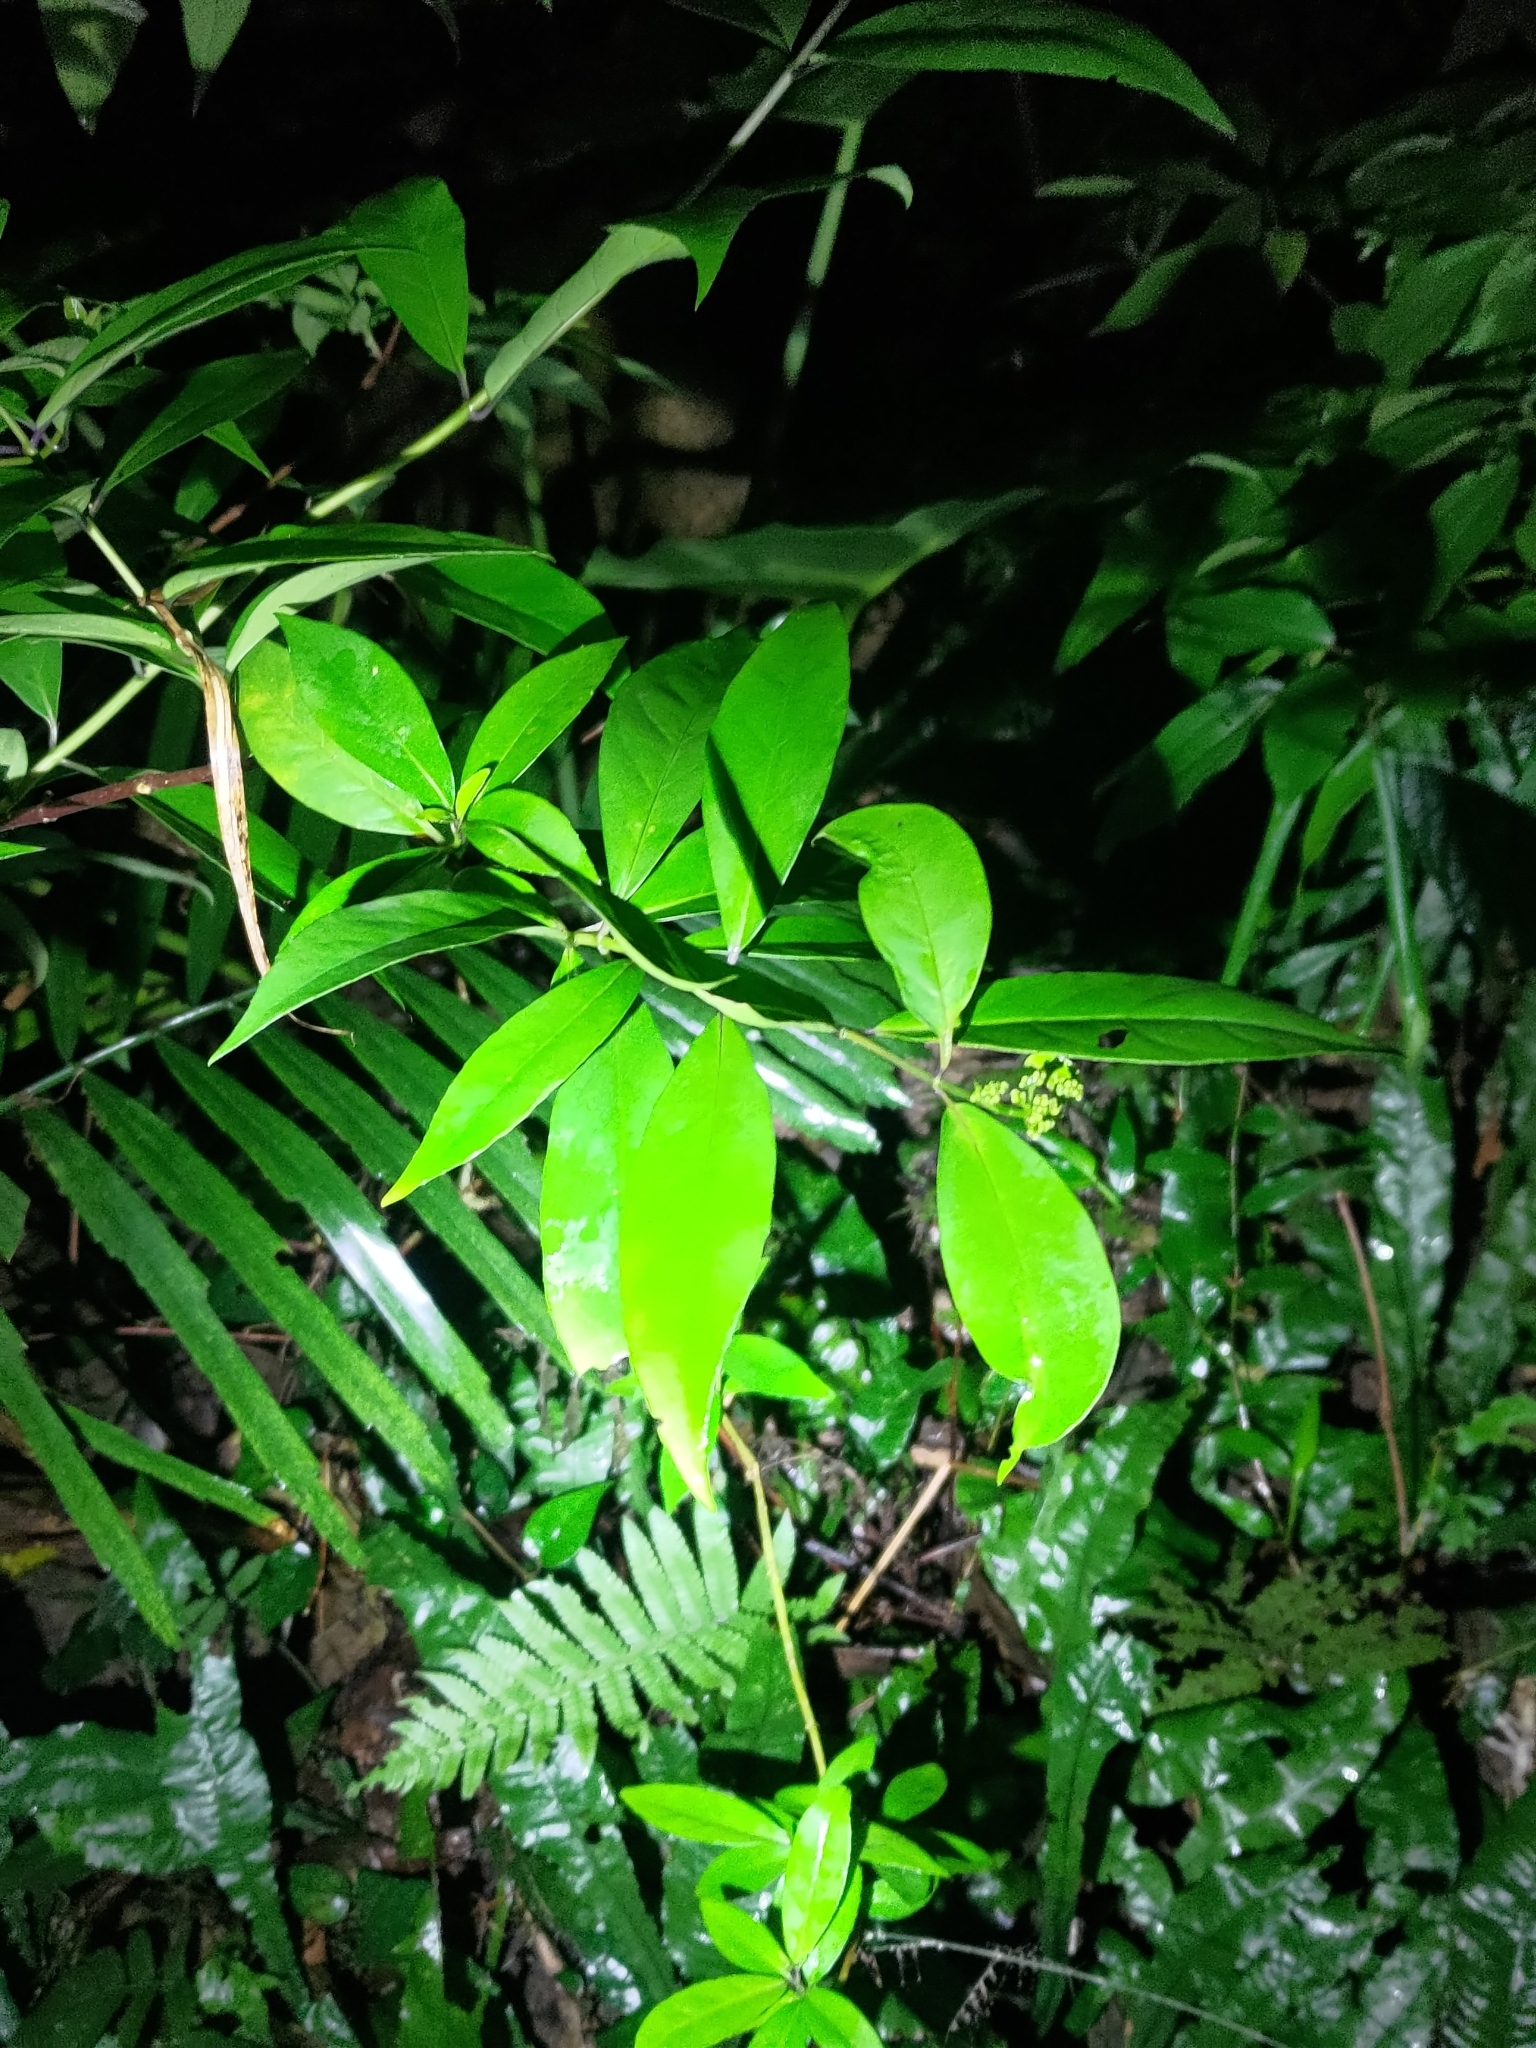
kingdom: Plantae
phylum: Tracheophyta
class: Magnoliopsida
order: Cornales
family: Hydrangeaceae
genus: Hydrangea
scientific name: Hydrangea chinensis
